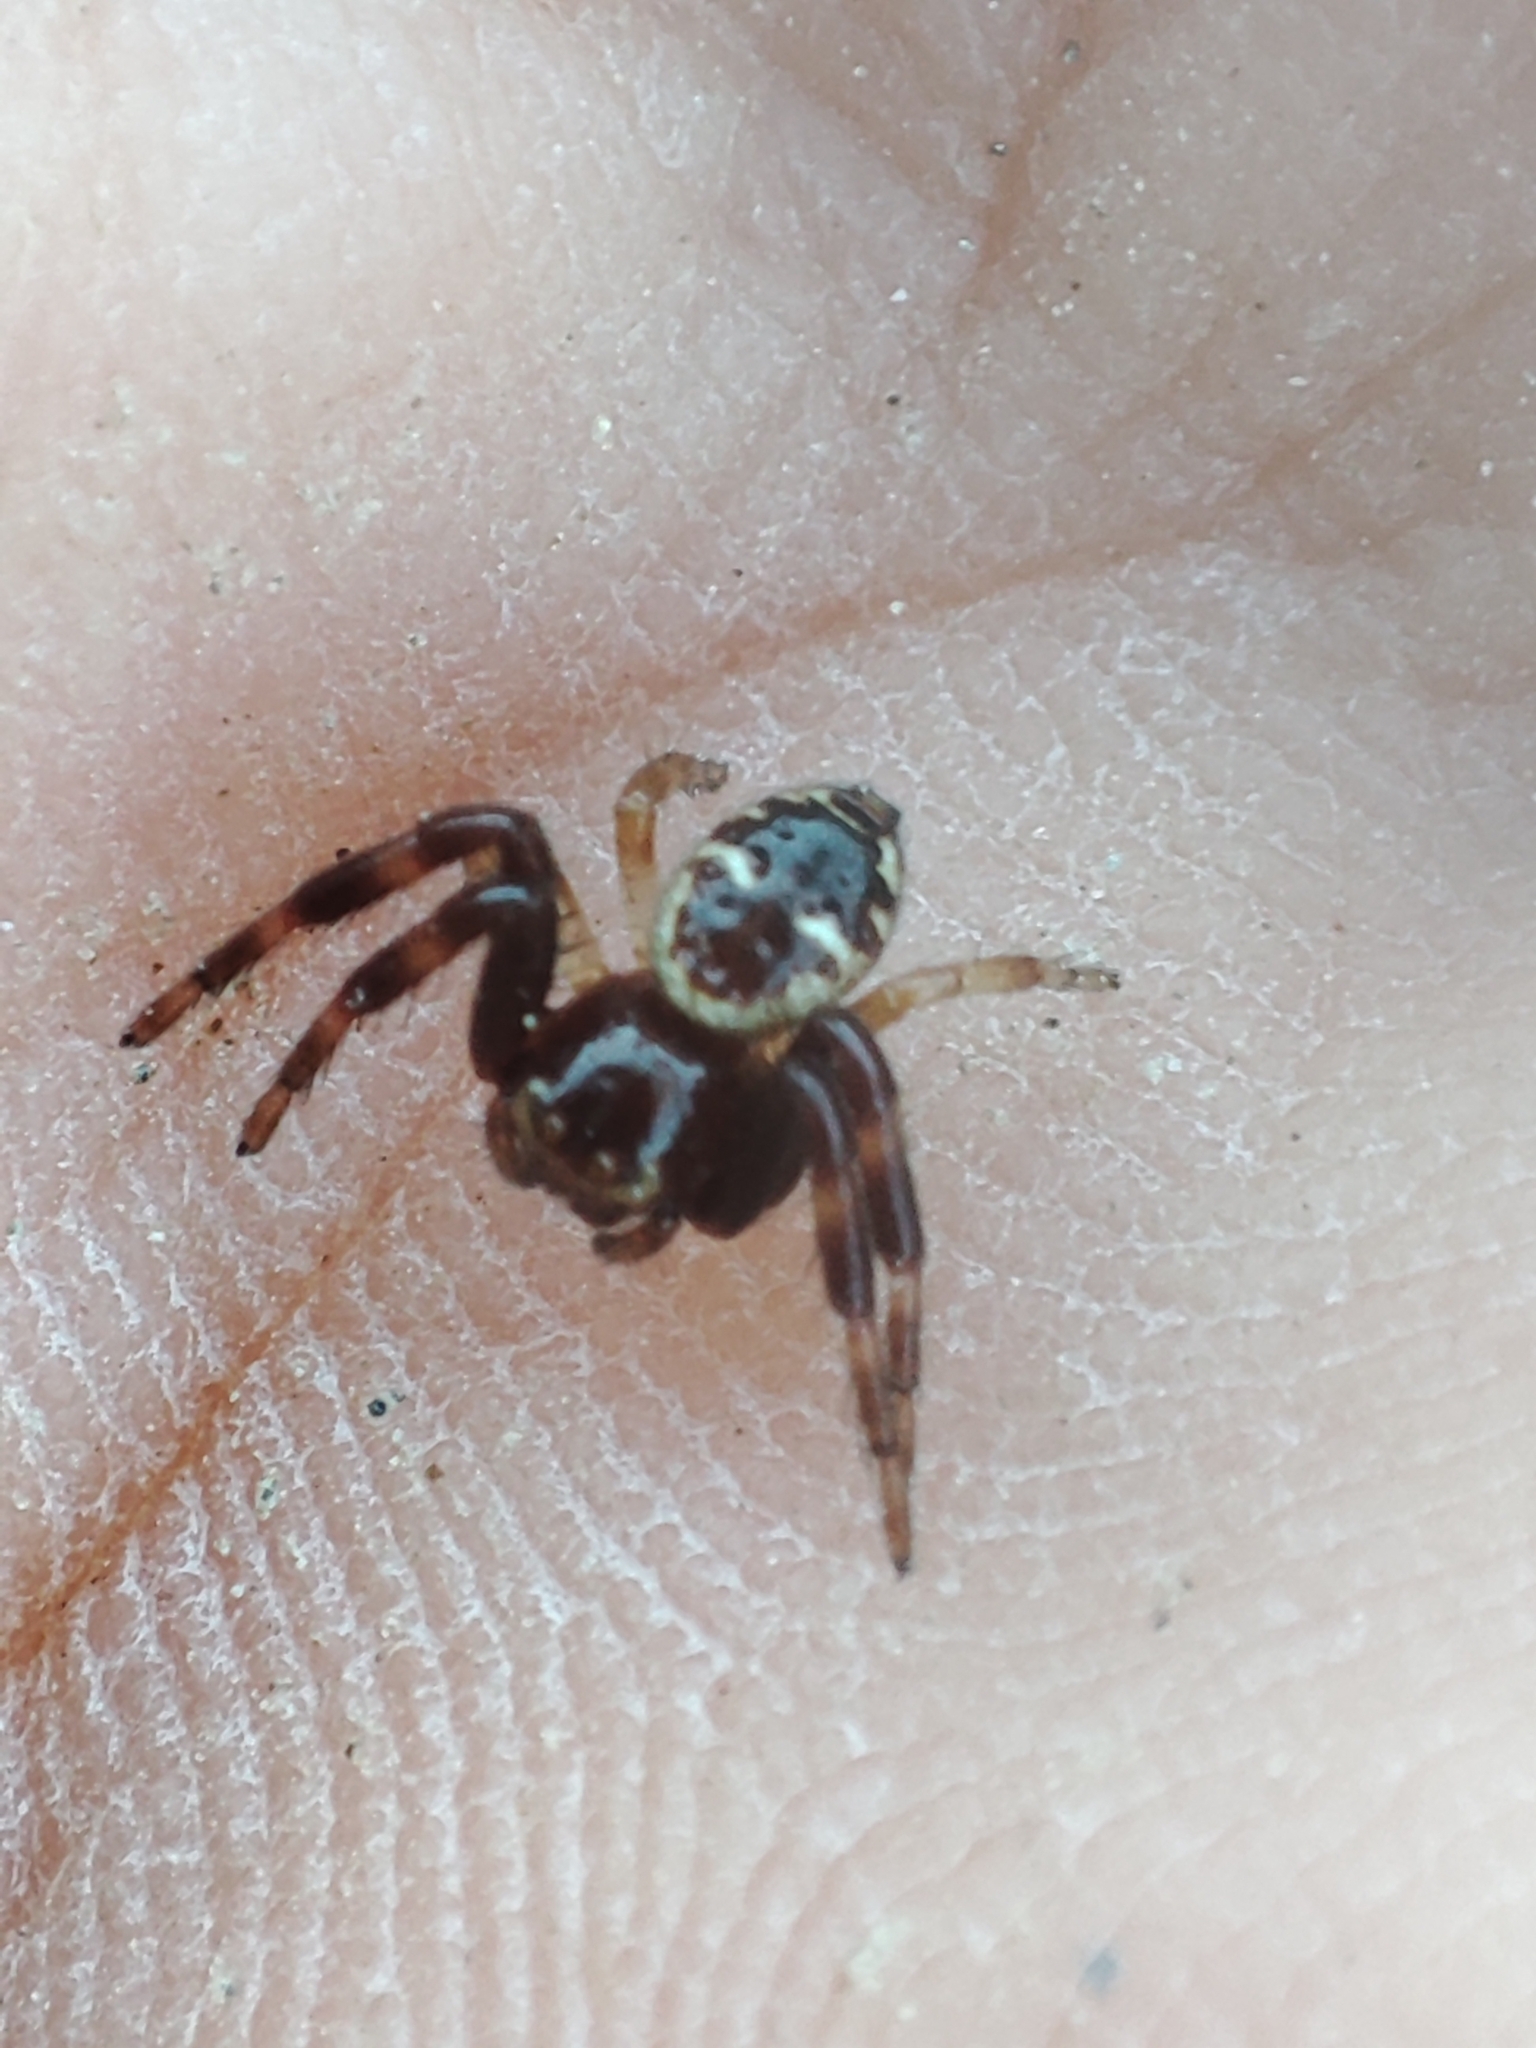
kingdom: Animalia
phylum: Arthropoda
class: Arachnida
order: Araneae
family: Thomisidae
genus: Synema
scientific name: Synema globosum
